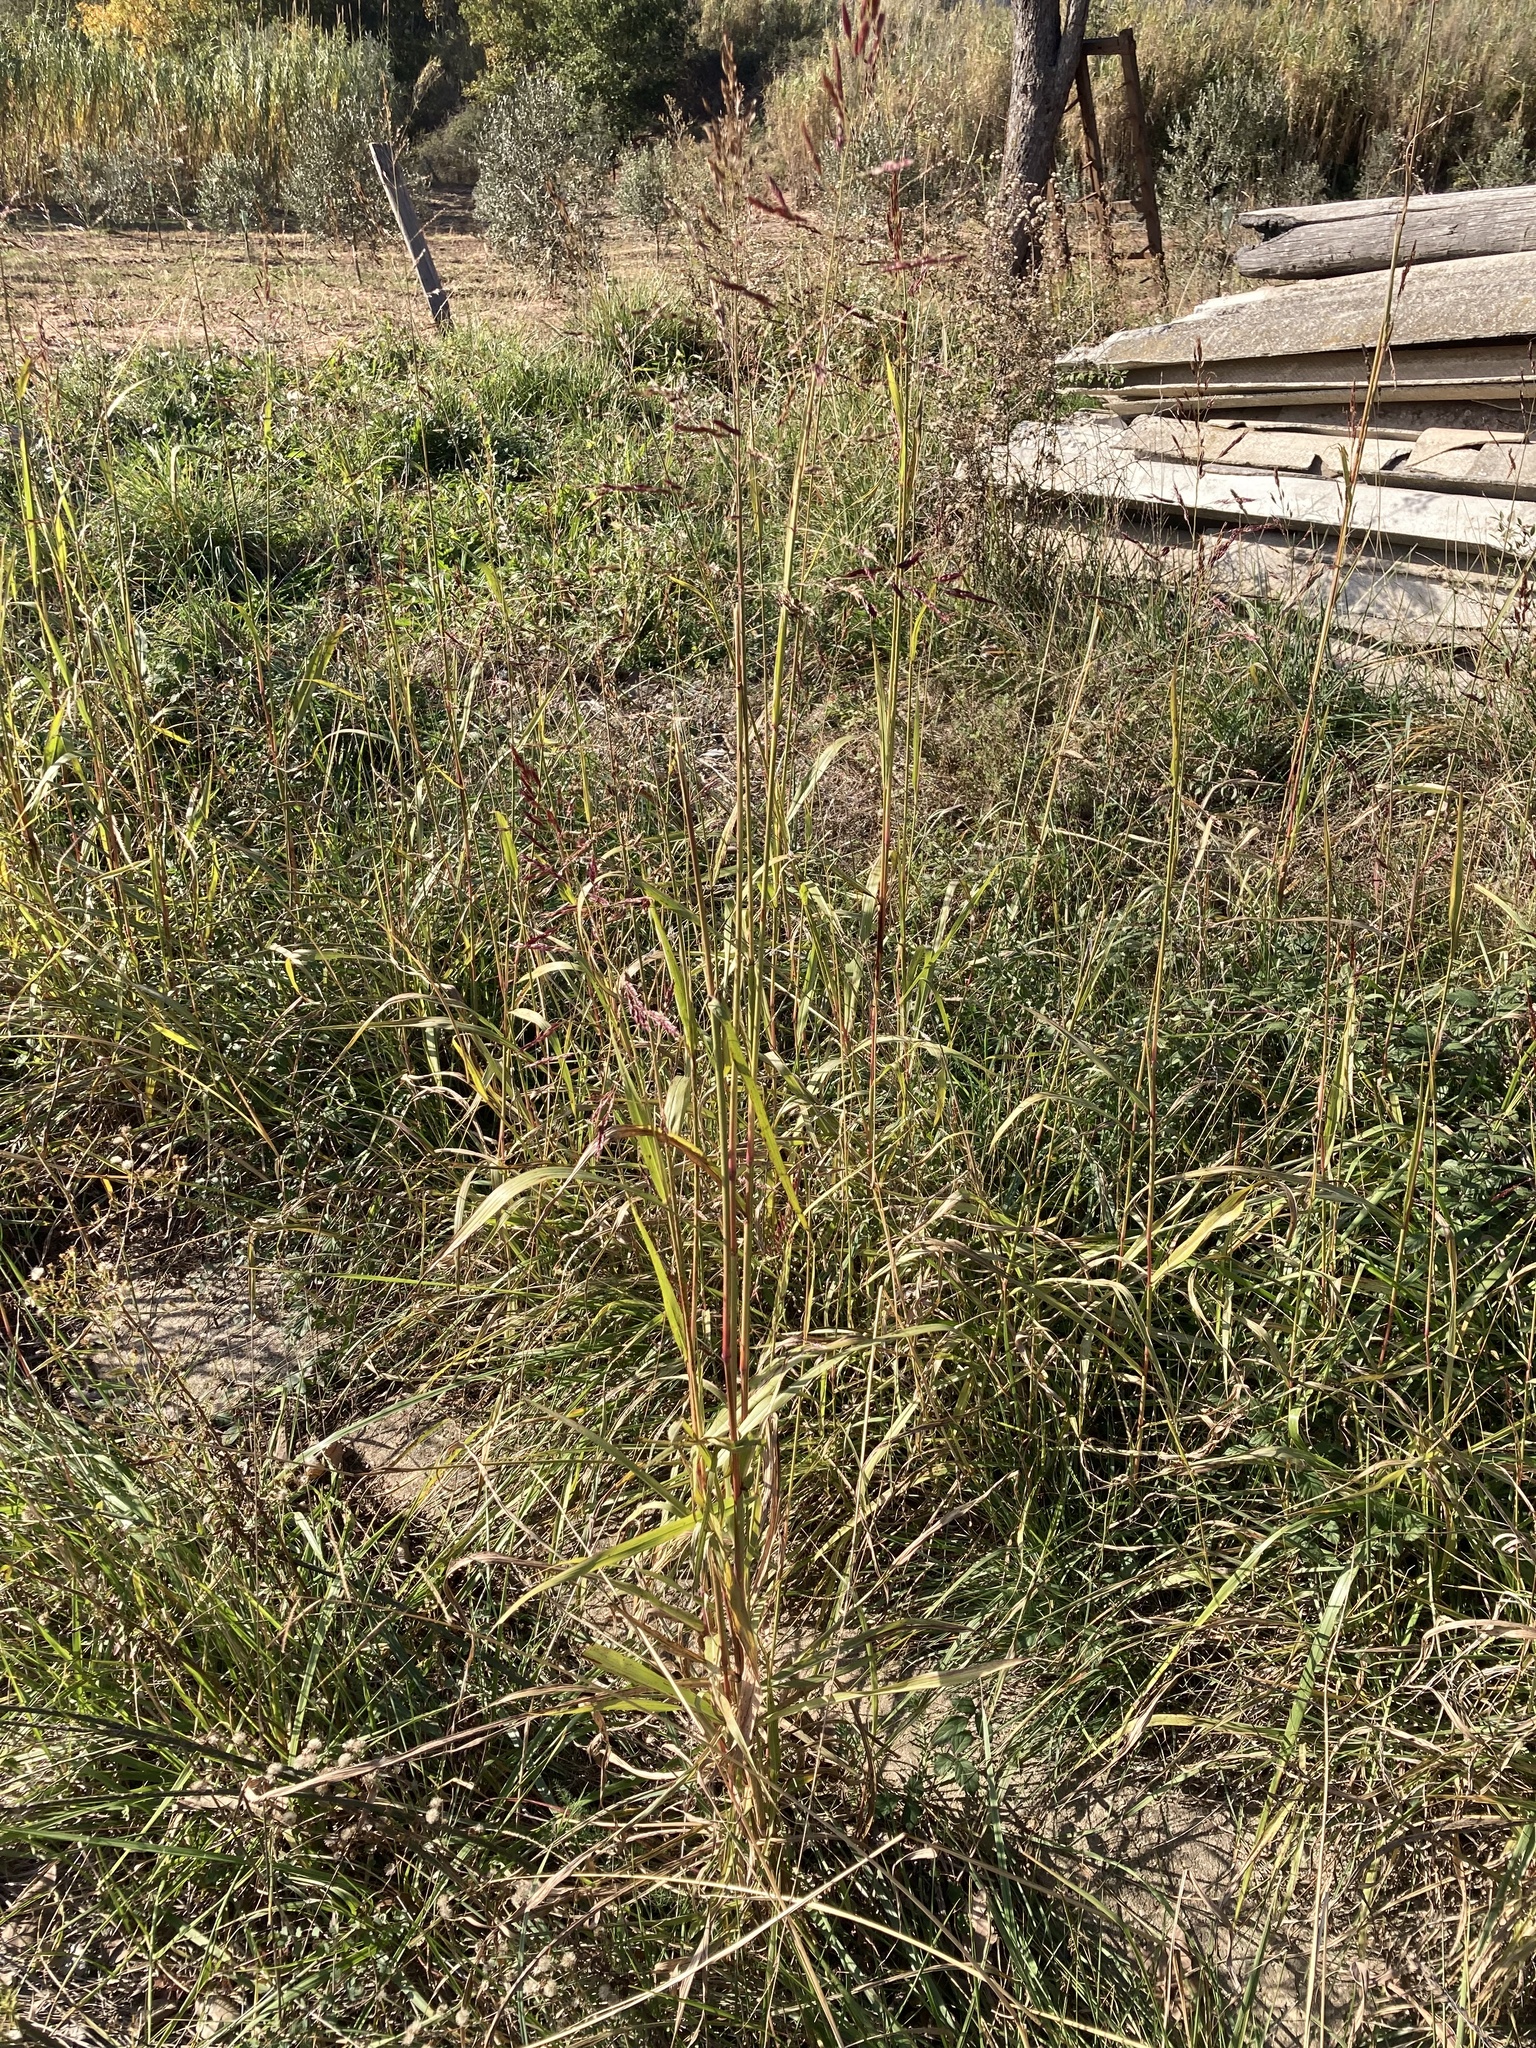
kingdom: Plantae
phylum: Tracheophyta
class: Liliopsida
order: Poales
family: Poaceae
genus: Sorghum
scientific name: Sorghum halepense
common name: Johnson-grass
